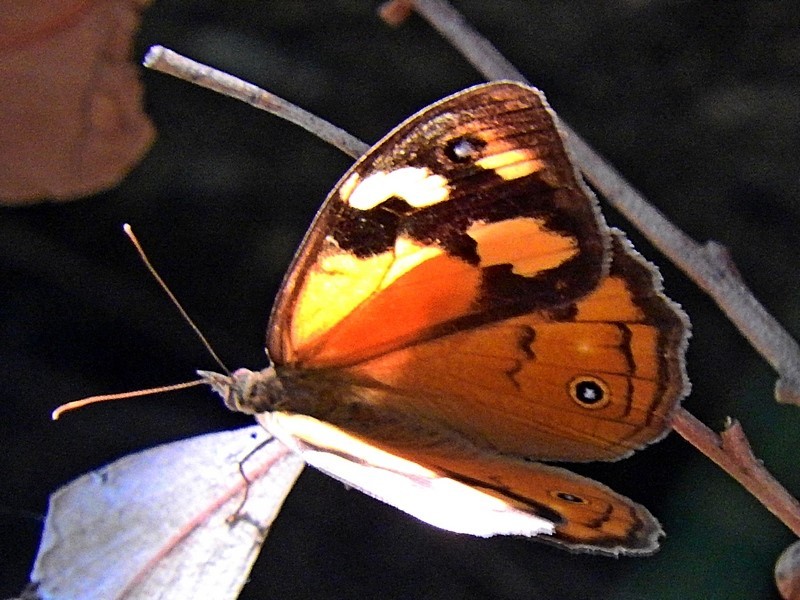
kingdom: Animalia
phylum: Arthropoda
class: Insecta
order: Lepidoptera
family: Nymphalidae
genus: Heteronympha
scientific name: Heteronympha merope
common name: Common brown
